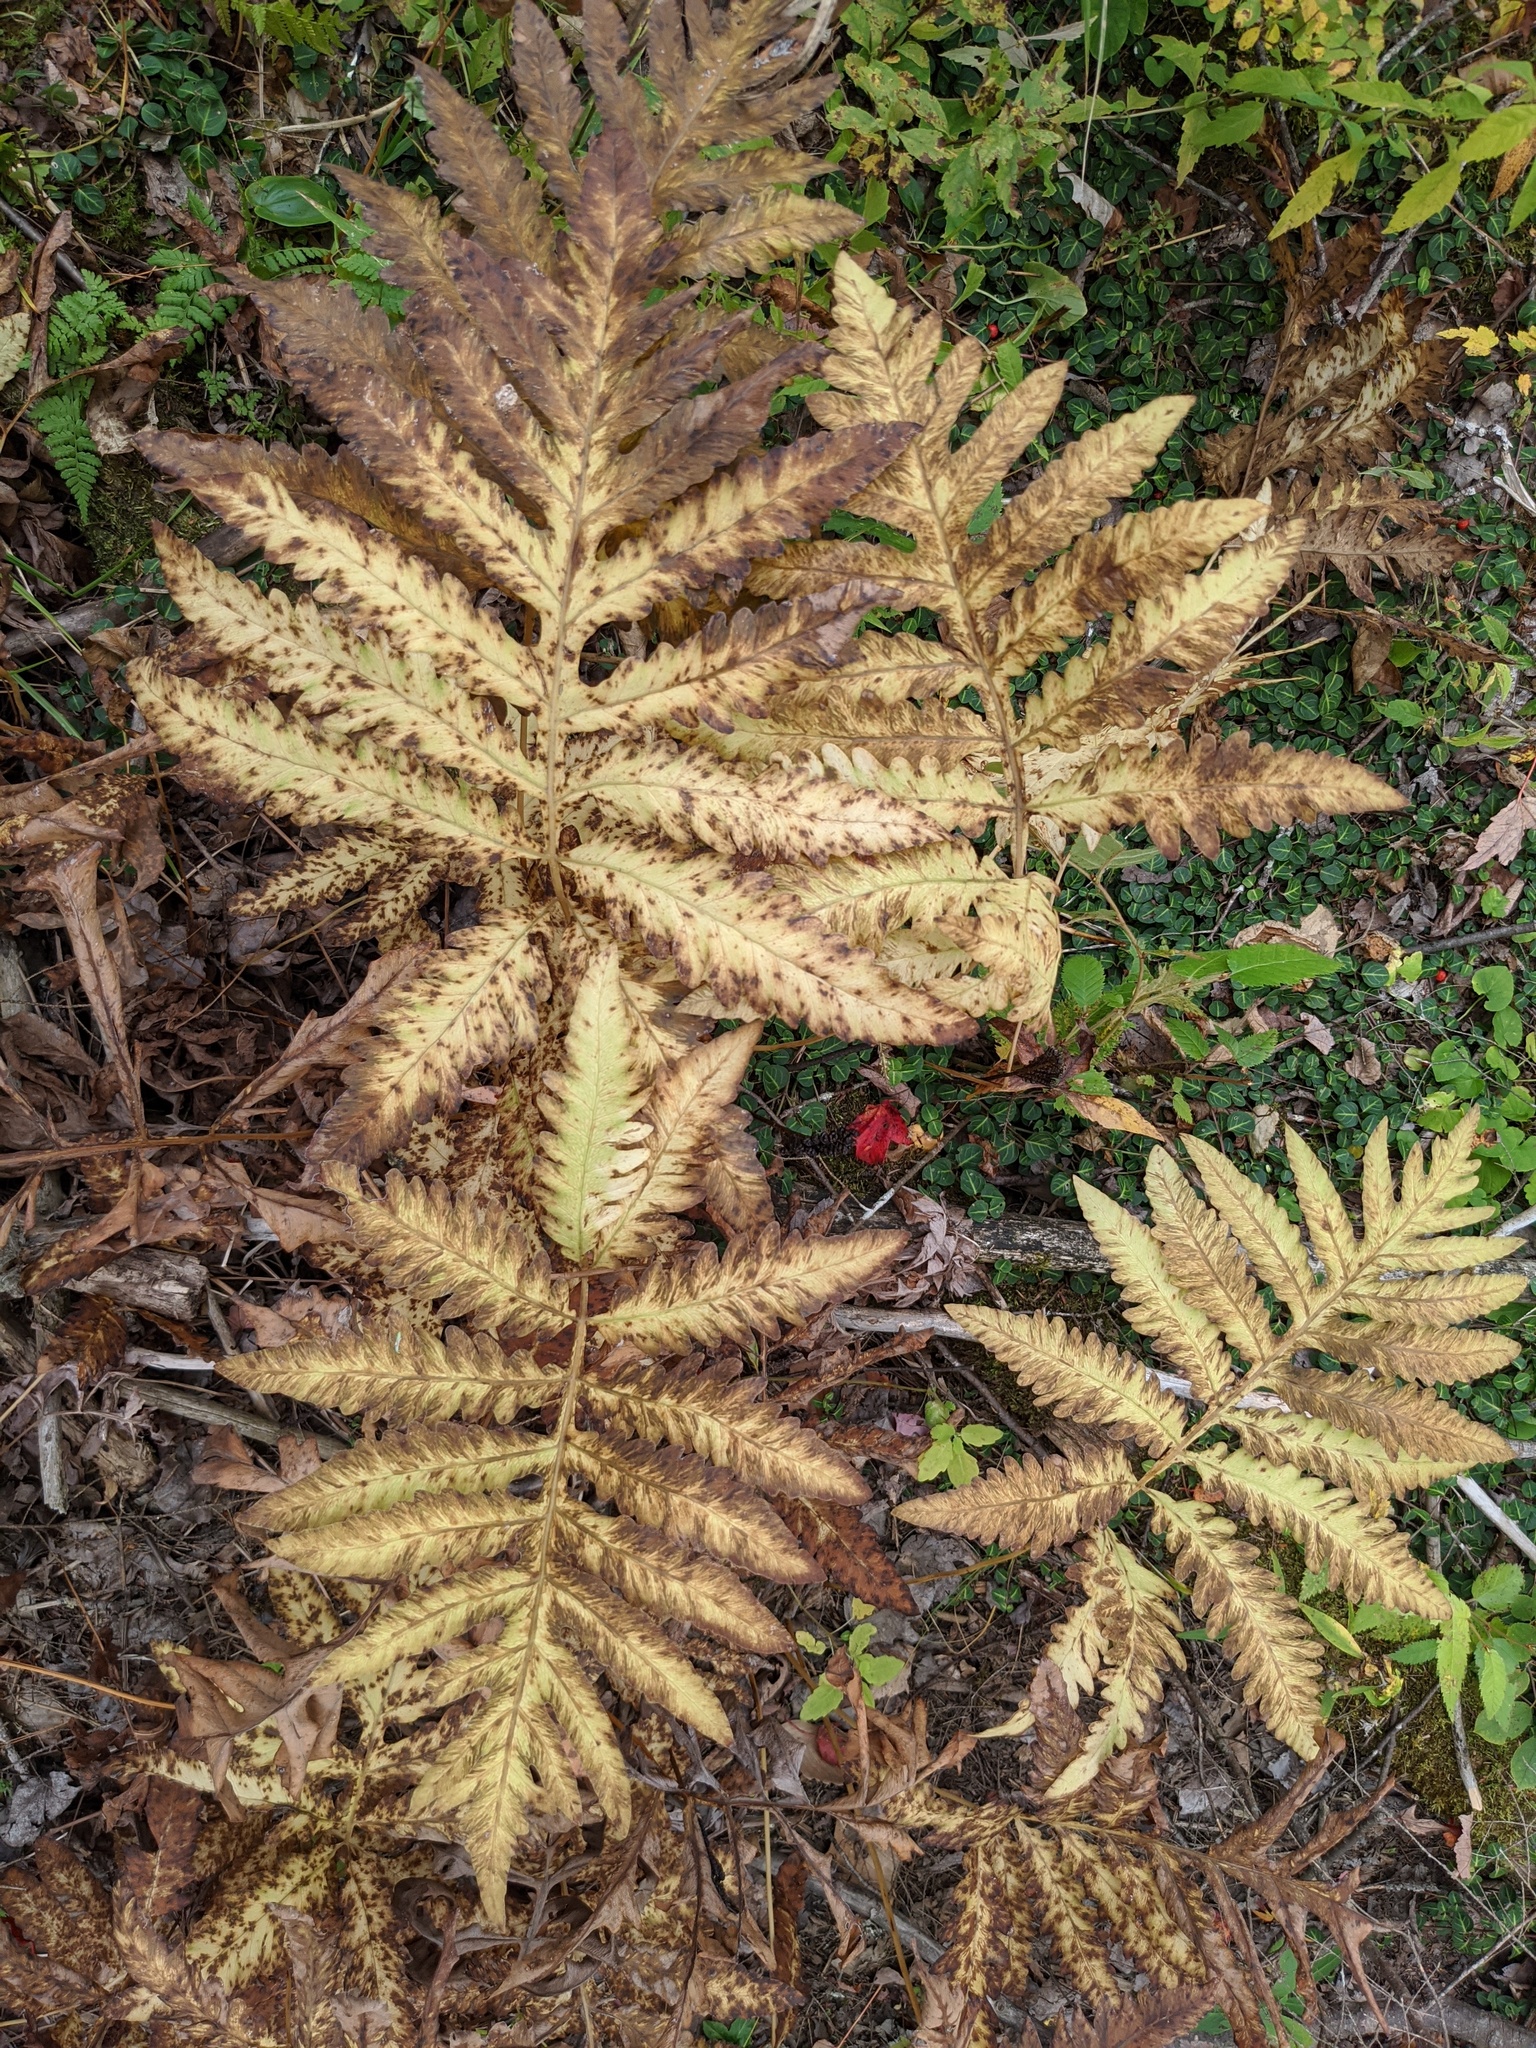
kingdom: Plantae
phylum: Tracheophyta
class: Polypodiopsida
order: Polypodiales
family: Onocleaceae
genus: Onoclea
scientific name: Onoclea sensibilis
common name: Sensitive fern
